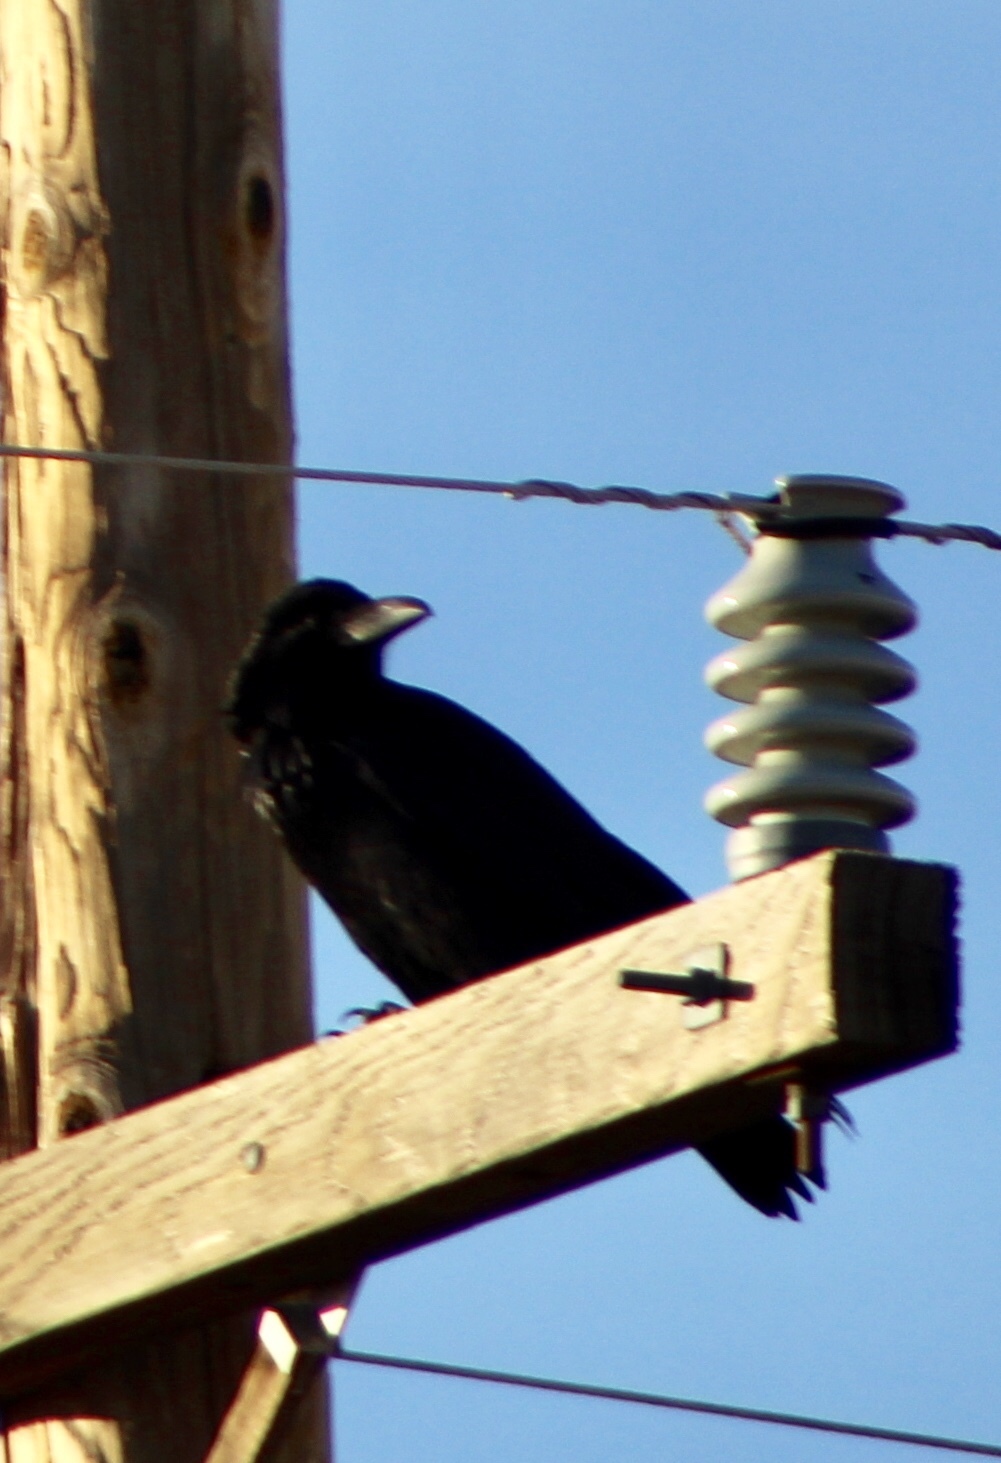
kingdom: Animalia
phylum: Chordata
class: Aves
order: Passeriformes
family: Corvidae
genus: Corvus
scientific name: Corvus corax
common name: Common raven
